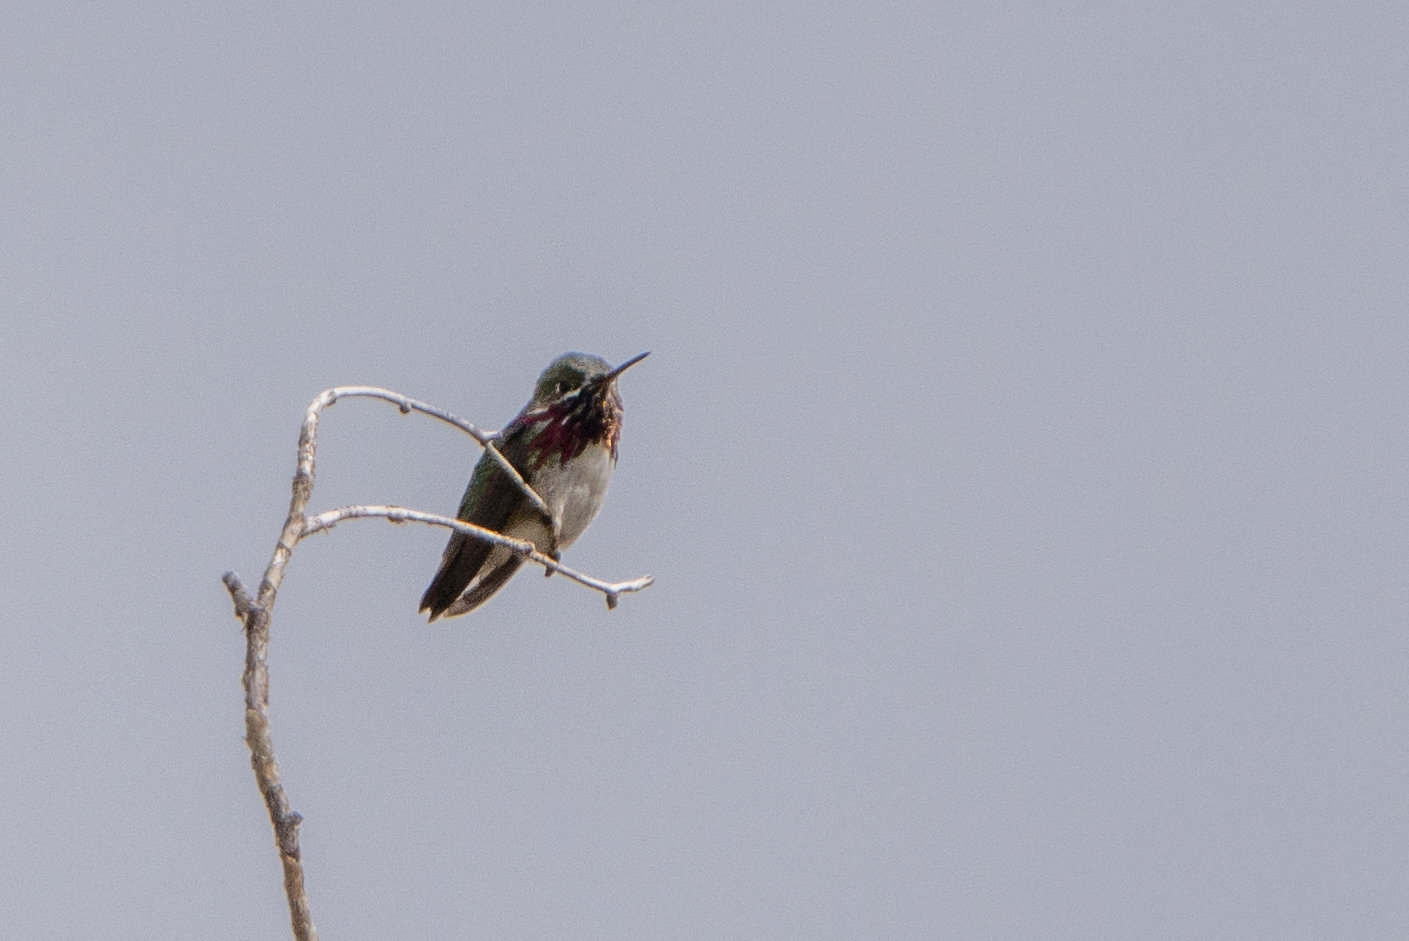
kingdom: Animalia
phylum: Chordata
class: Aves
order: Apodiformes
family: Trochilidae
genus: Selasphorus
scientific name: Selasphorus calliope
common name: Calliope hummingbird
